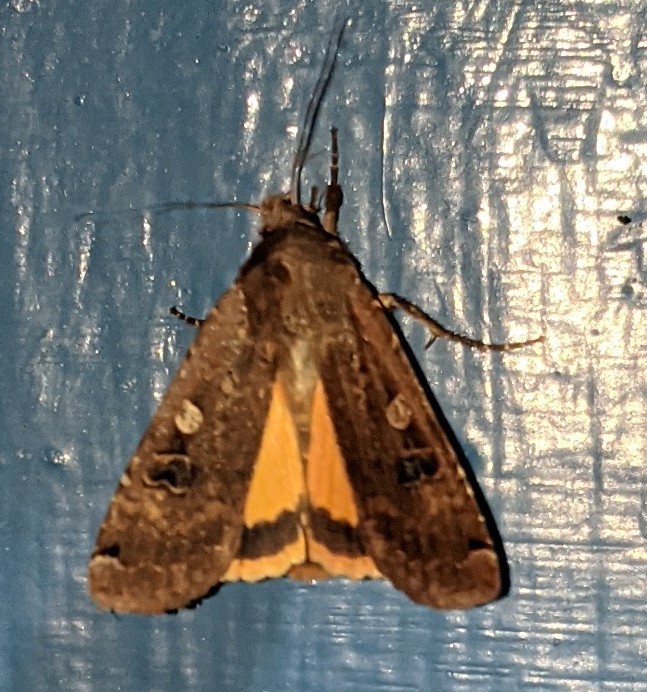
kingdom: Animalia
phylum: Arthropoda
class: Insecta
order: Lepidoptera
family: Noctuidae
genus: Noctua
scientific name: Noctua pronuba
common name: Large yellow underwing
